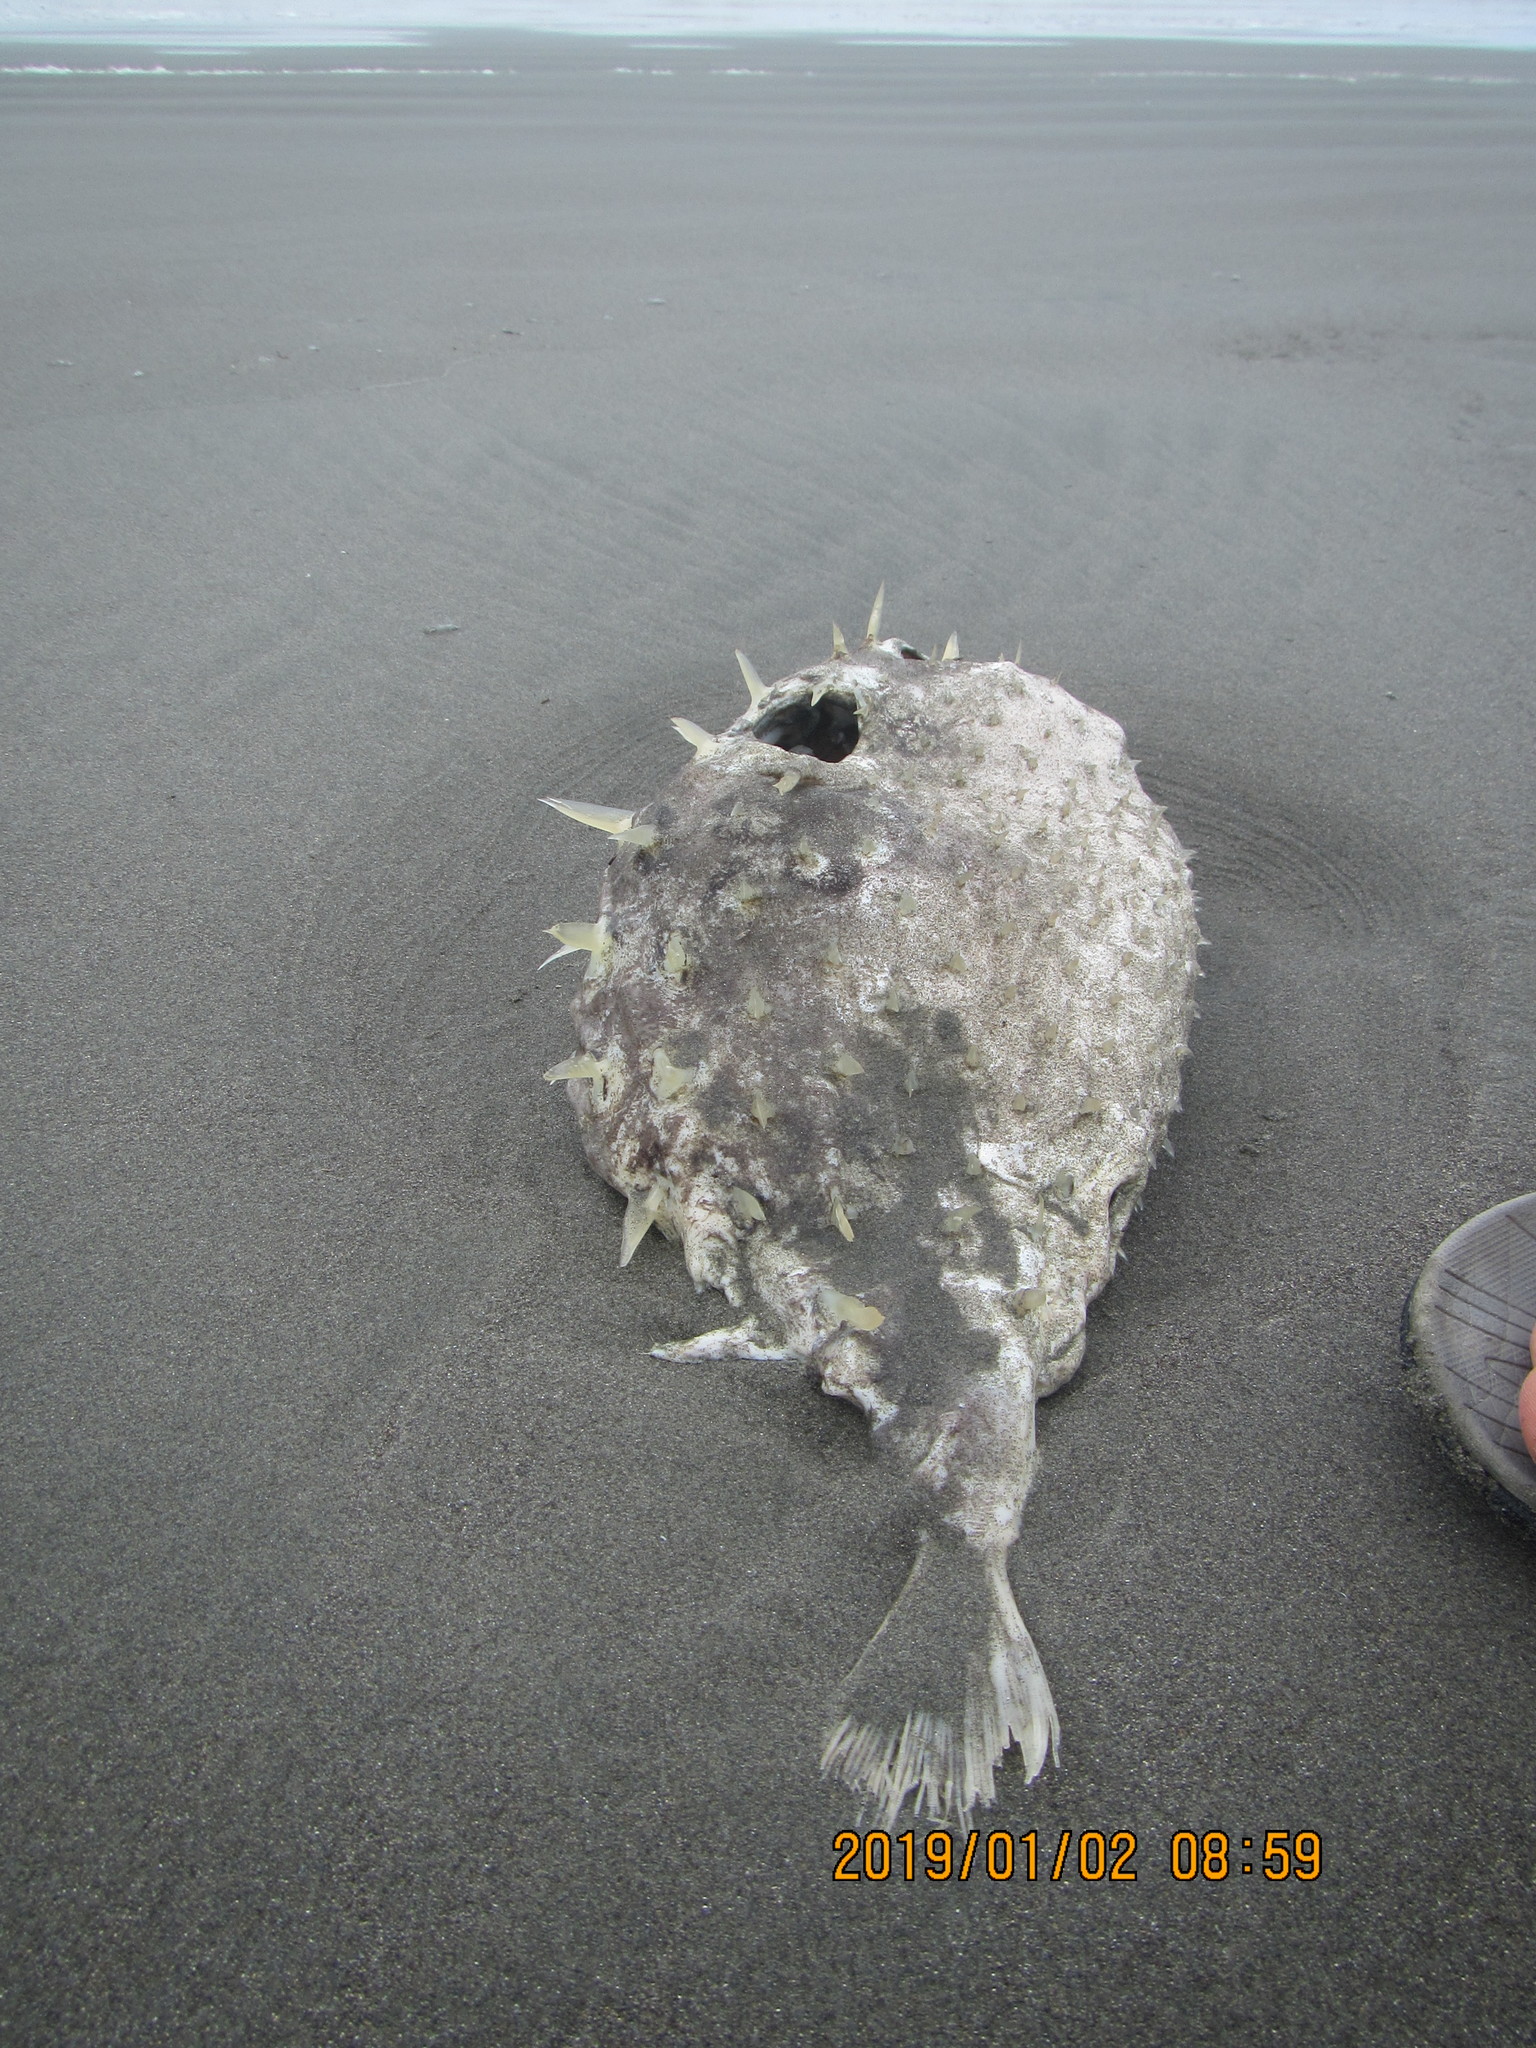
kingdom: Animalia
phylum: Chordata
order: Tetraodontiformes
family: Diodontidae
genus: Allomycterus
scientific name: Allomycterus pilatus
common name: No common name
